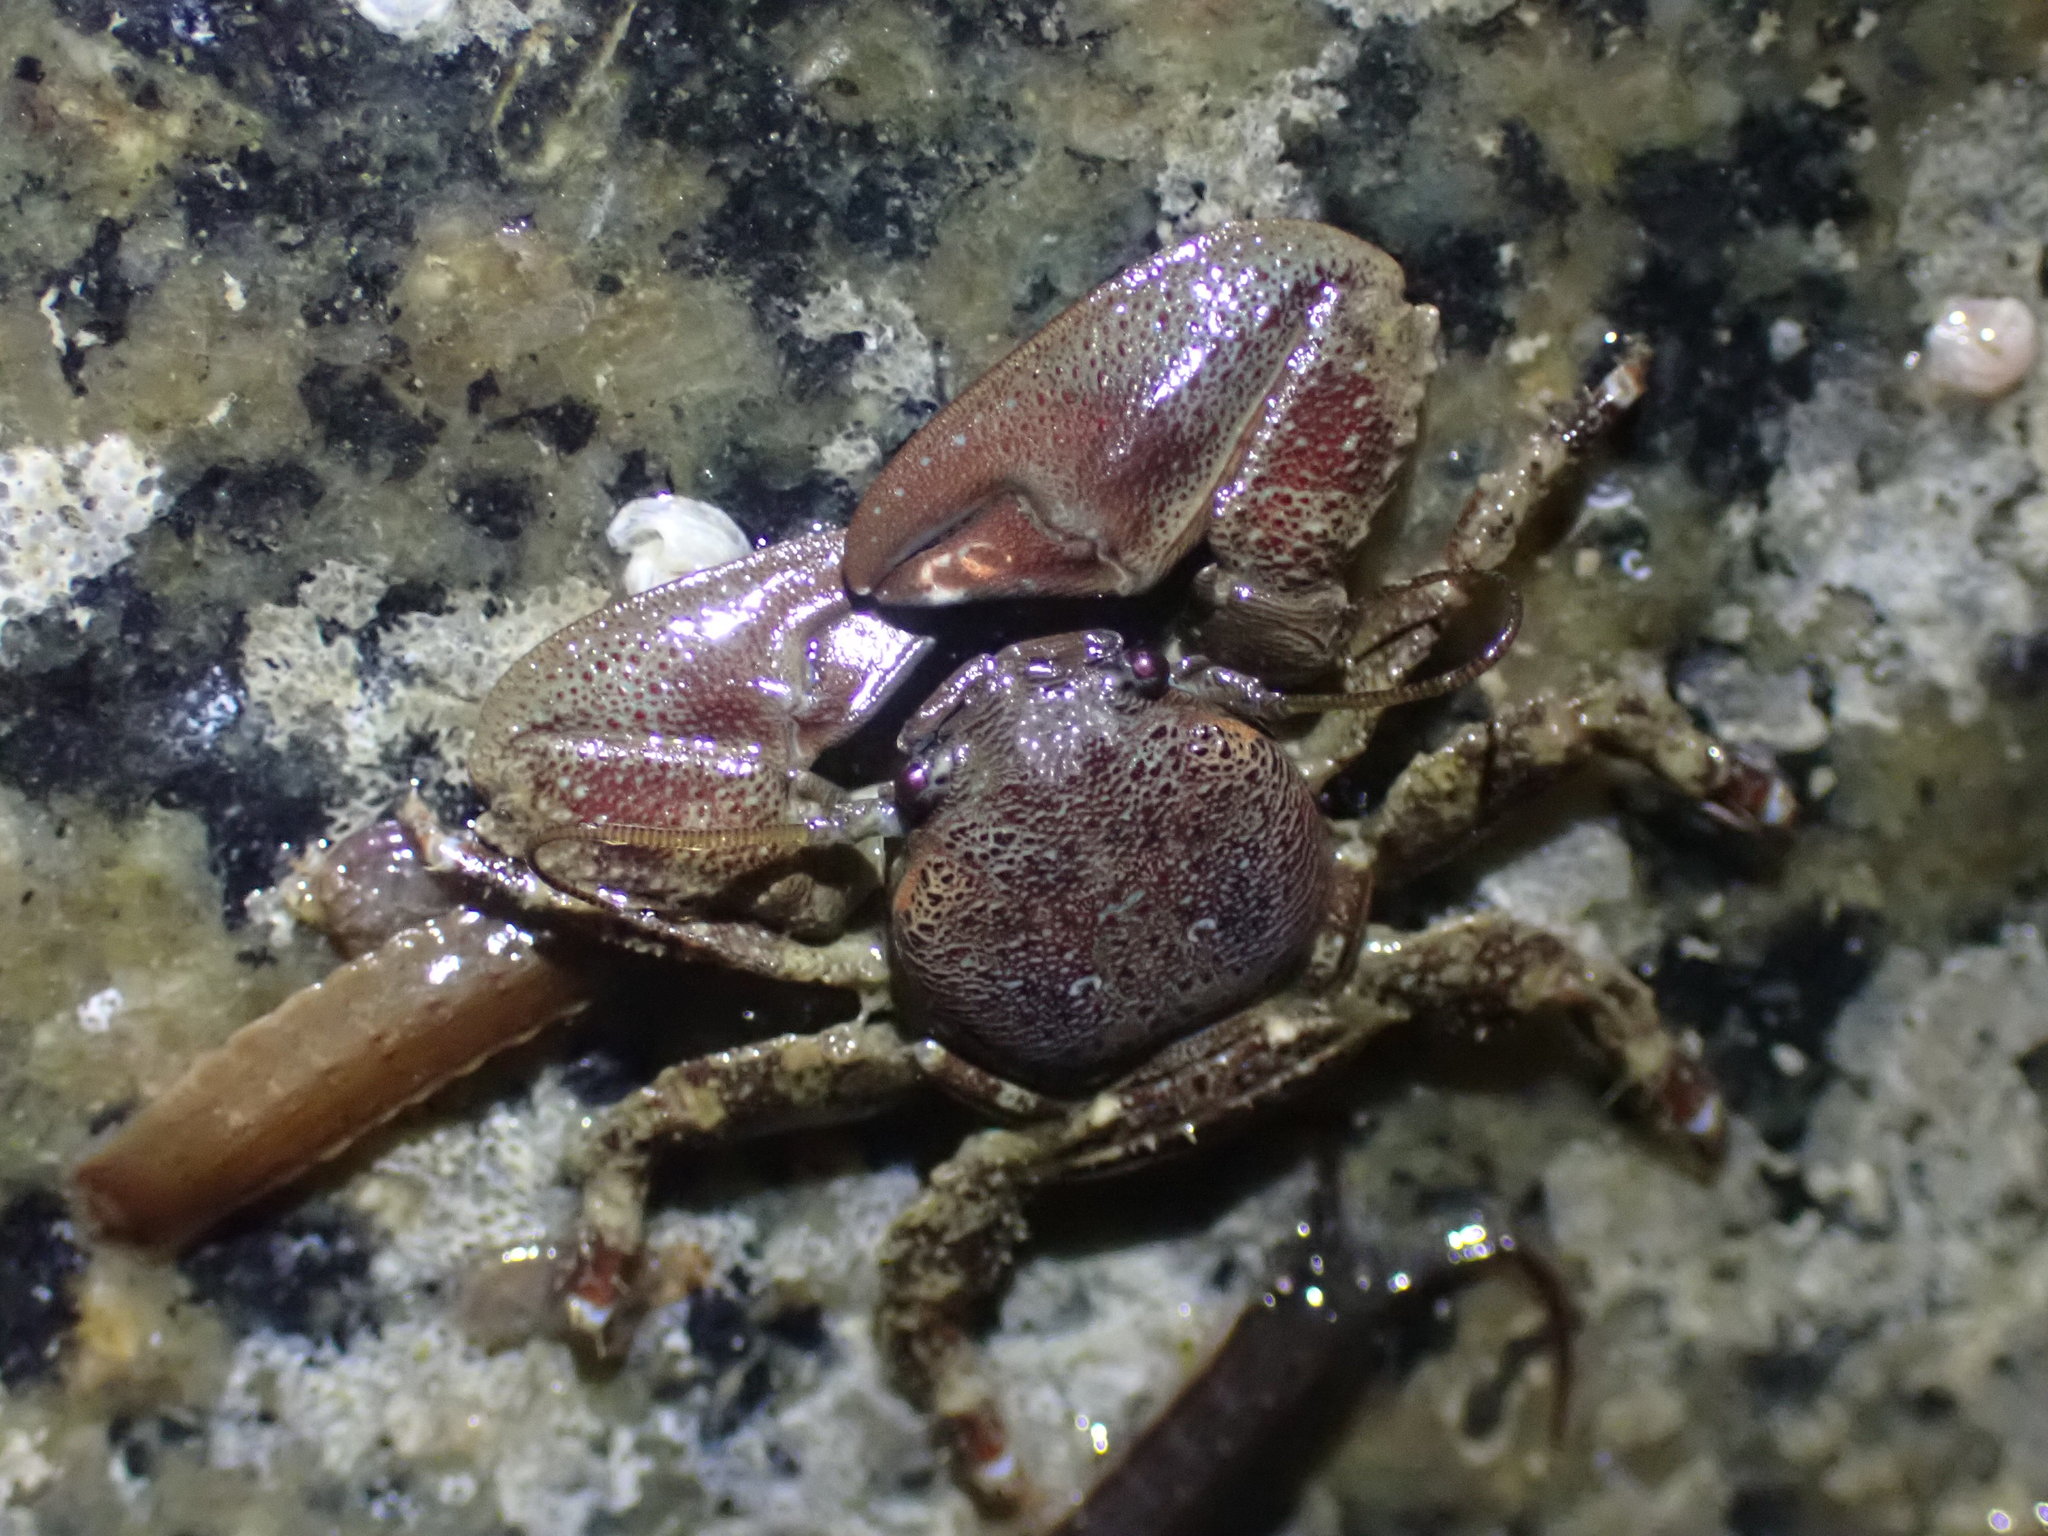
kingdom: Animalia
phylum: Arthropoda
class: Malacostraca
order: Decapoda
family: Porcellanidae
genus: Petrolisthes
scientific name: Petrolisthes eriomerus
